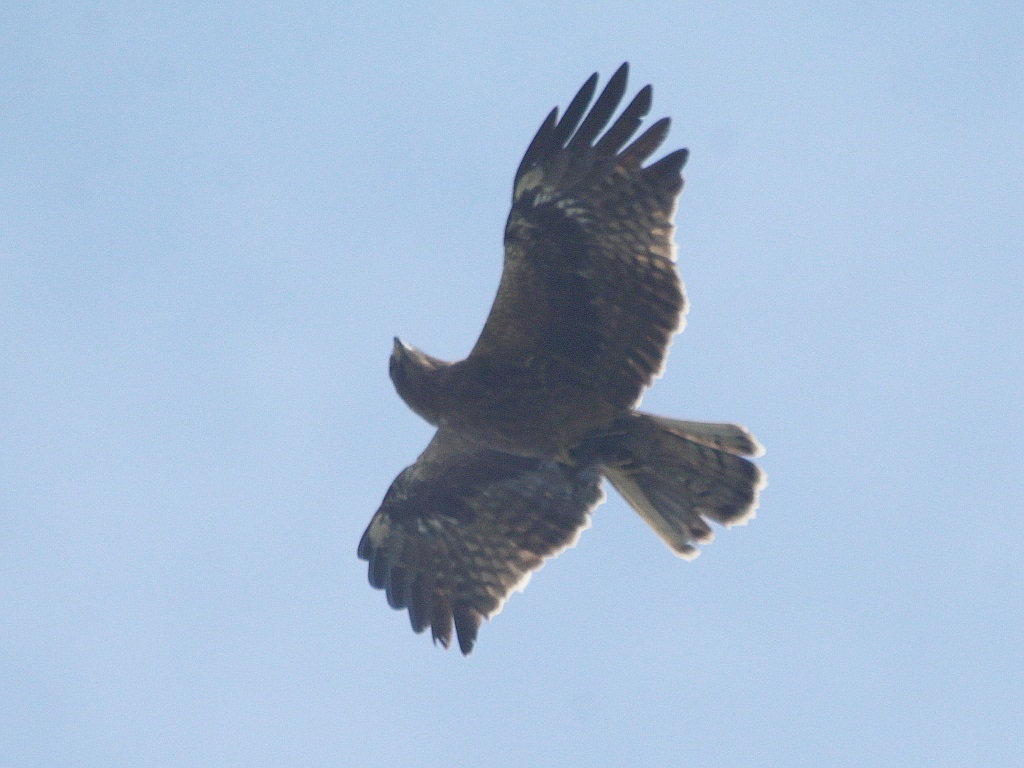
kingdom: Animalia
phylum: Chordata
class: Aves
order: Accipitriformes
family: Accipitridae
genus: Hieraaetus
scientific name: Hieraaetus pennatus
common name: Booted eagle
